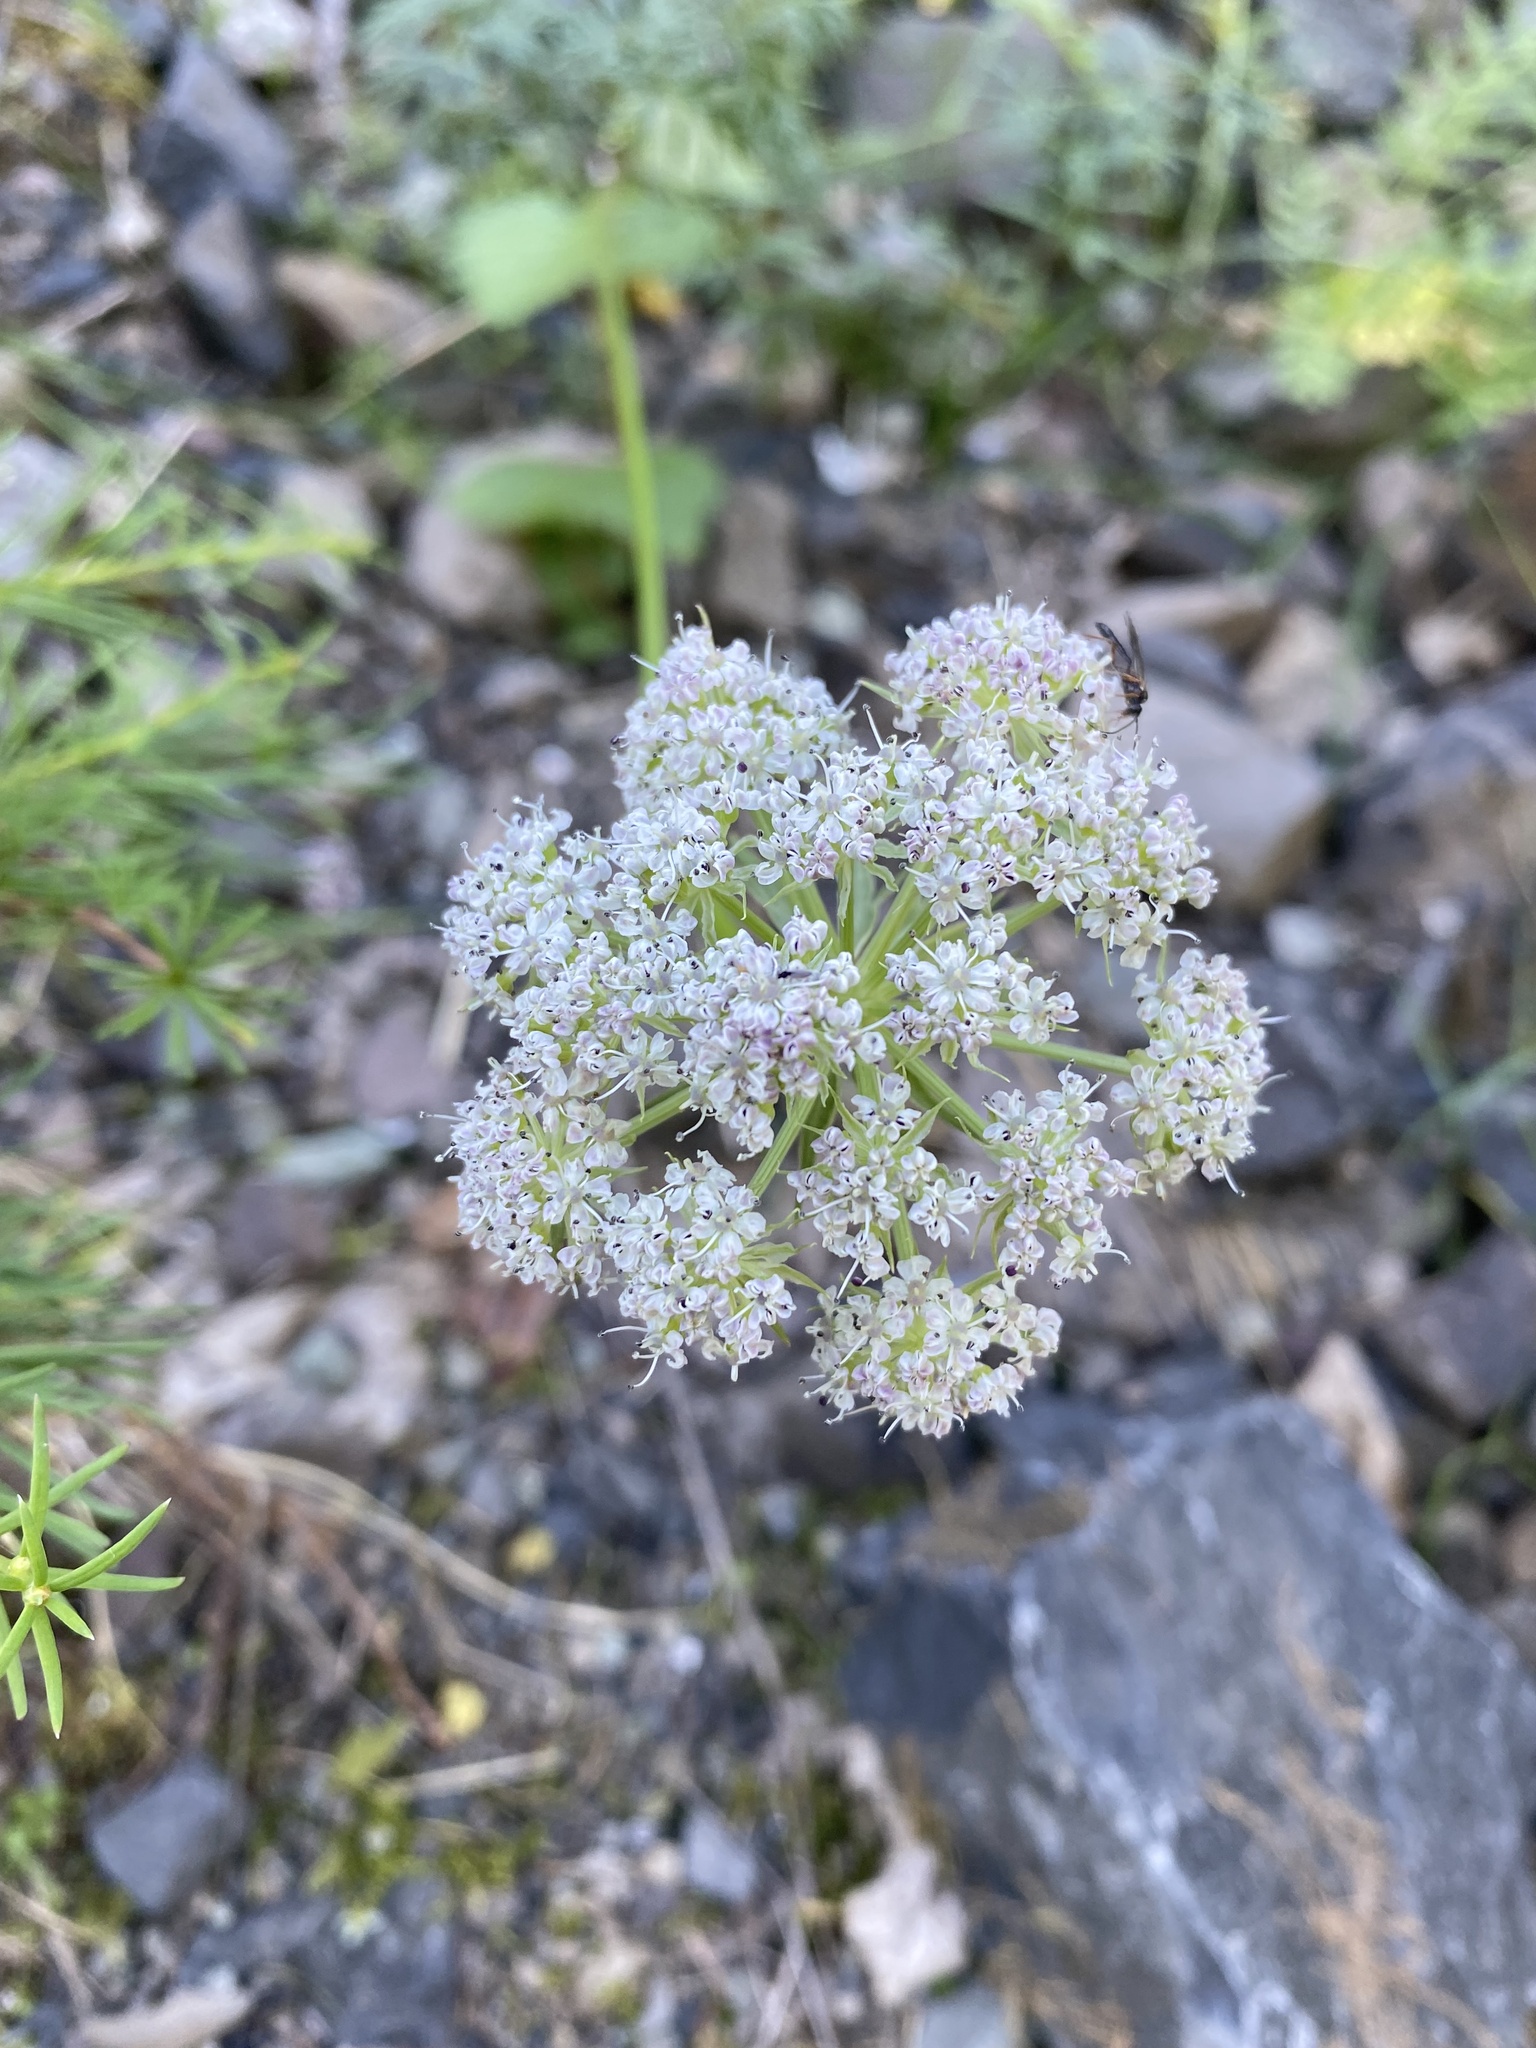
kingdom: Plantae
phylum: Tracheophyta
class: Magnoliopsida
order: Apiales
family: Apiaceae
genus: Pachypleurum
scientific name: Pachypleurum mutellinoides
